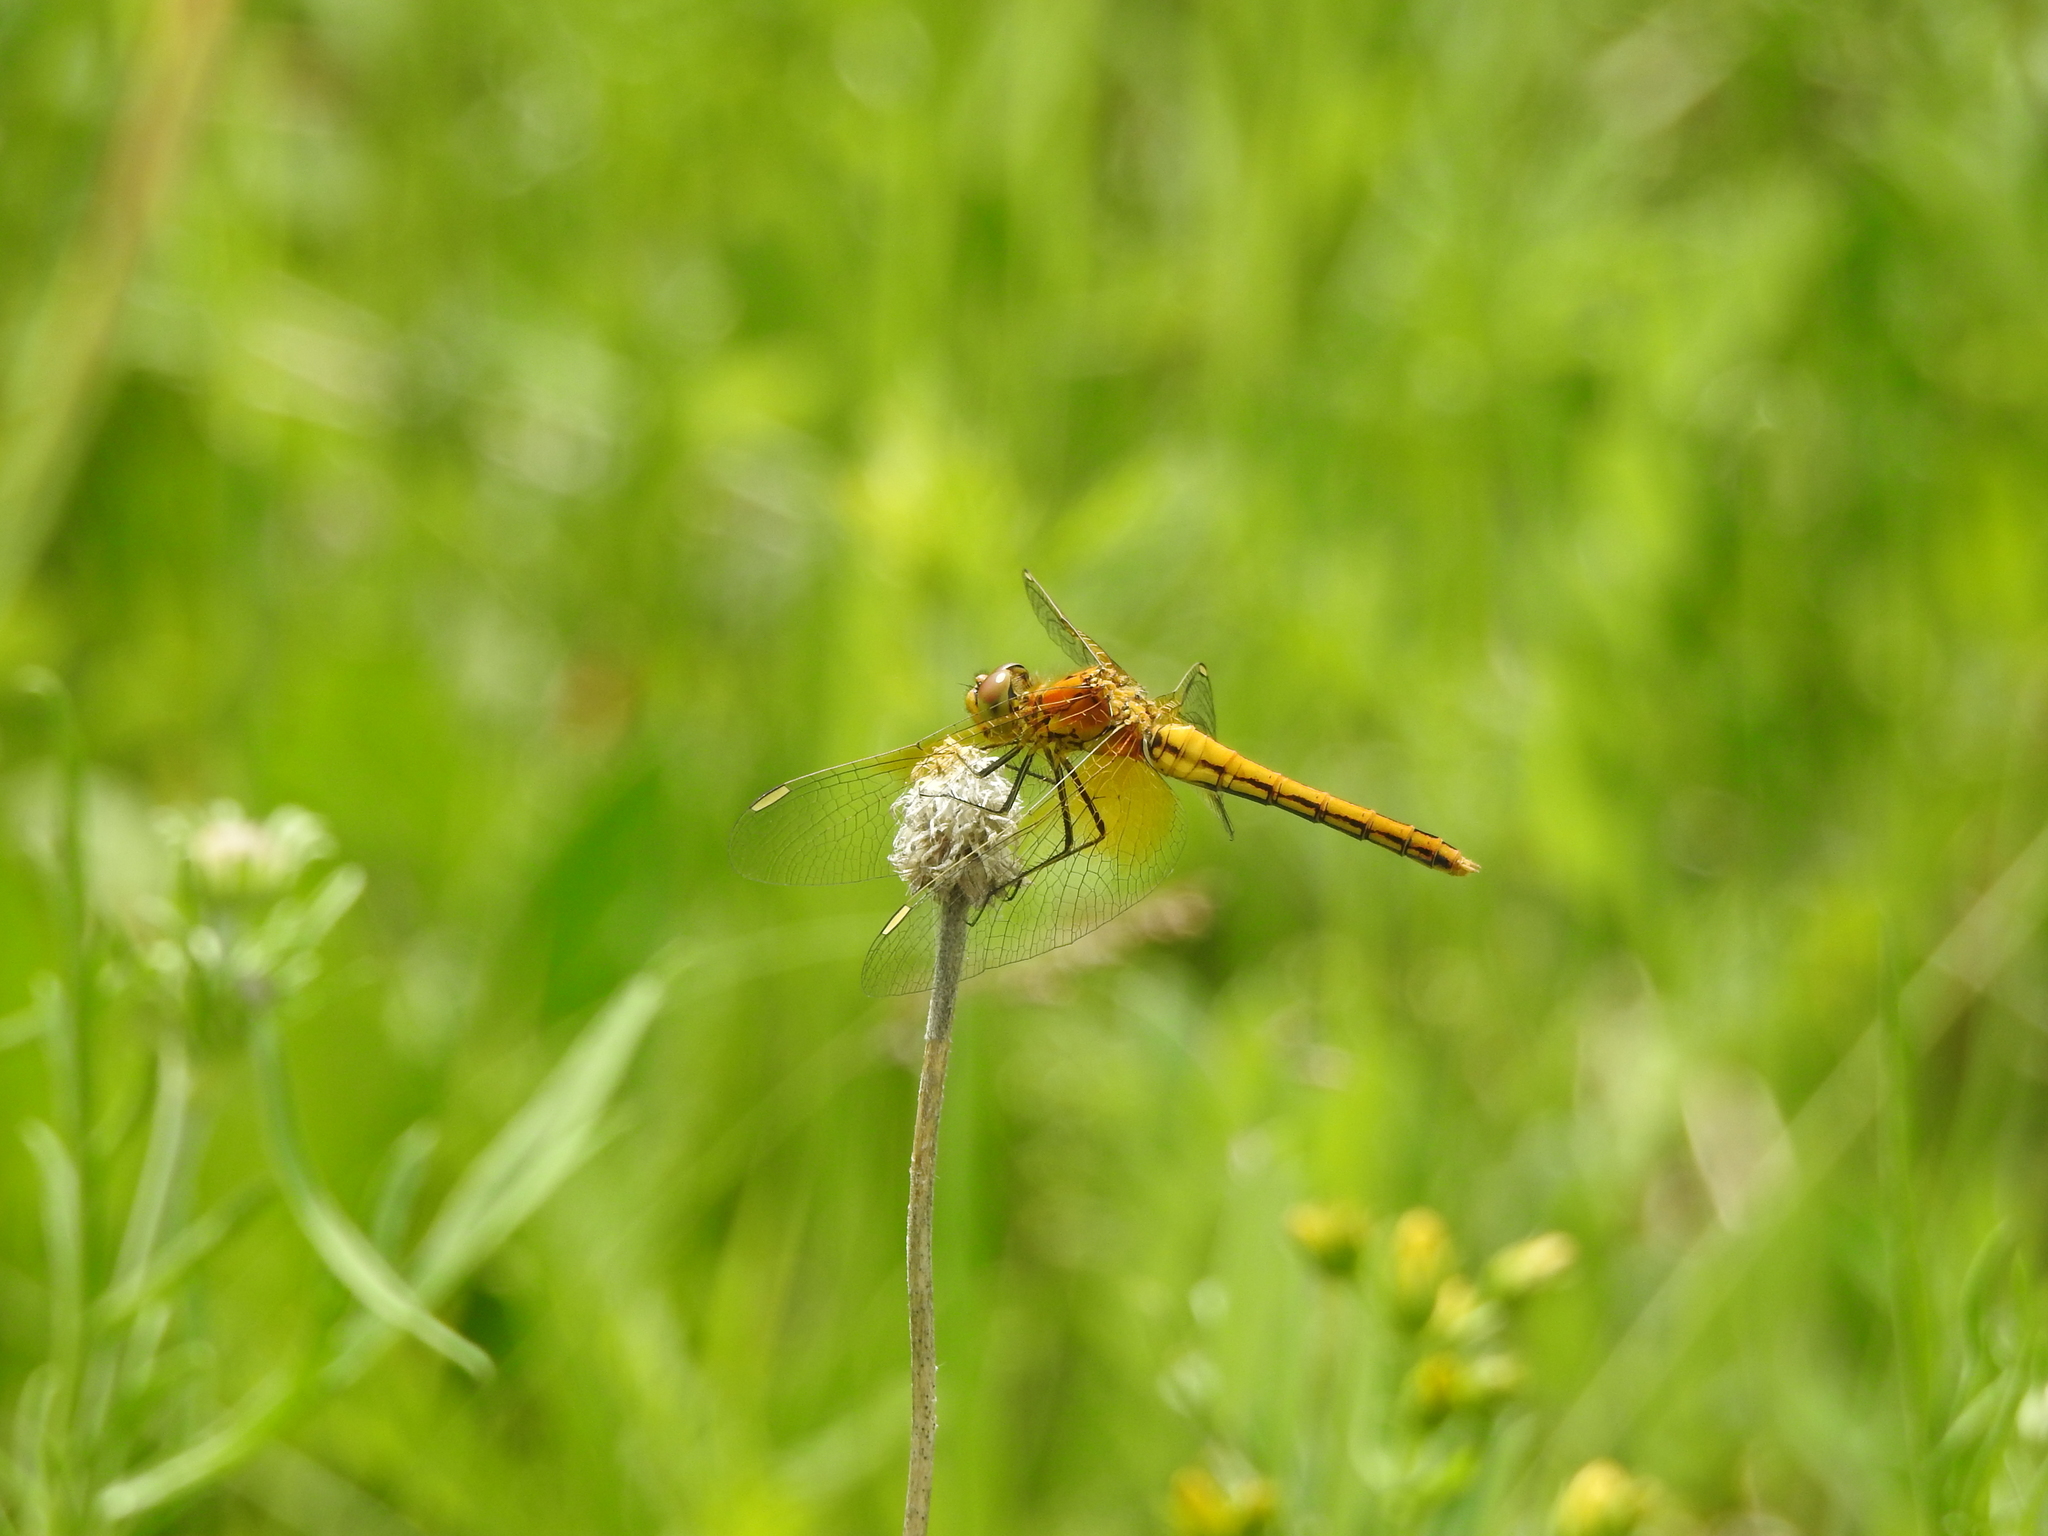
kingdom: Animalia
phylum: Arthropoda
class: Insecta
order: Odonata
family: Libellulidae
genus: Sympetrum
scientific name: Sympetrum flaveolum
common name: Yellow-winged darter
